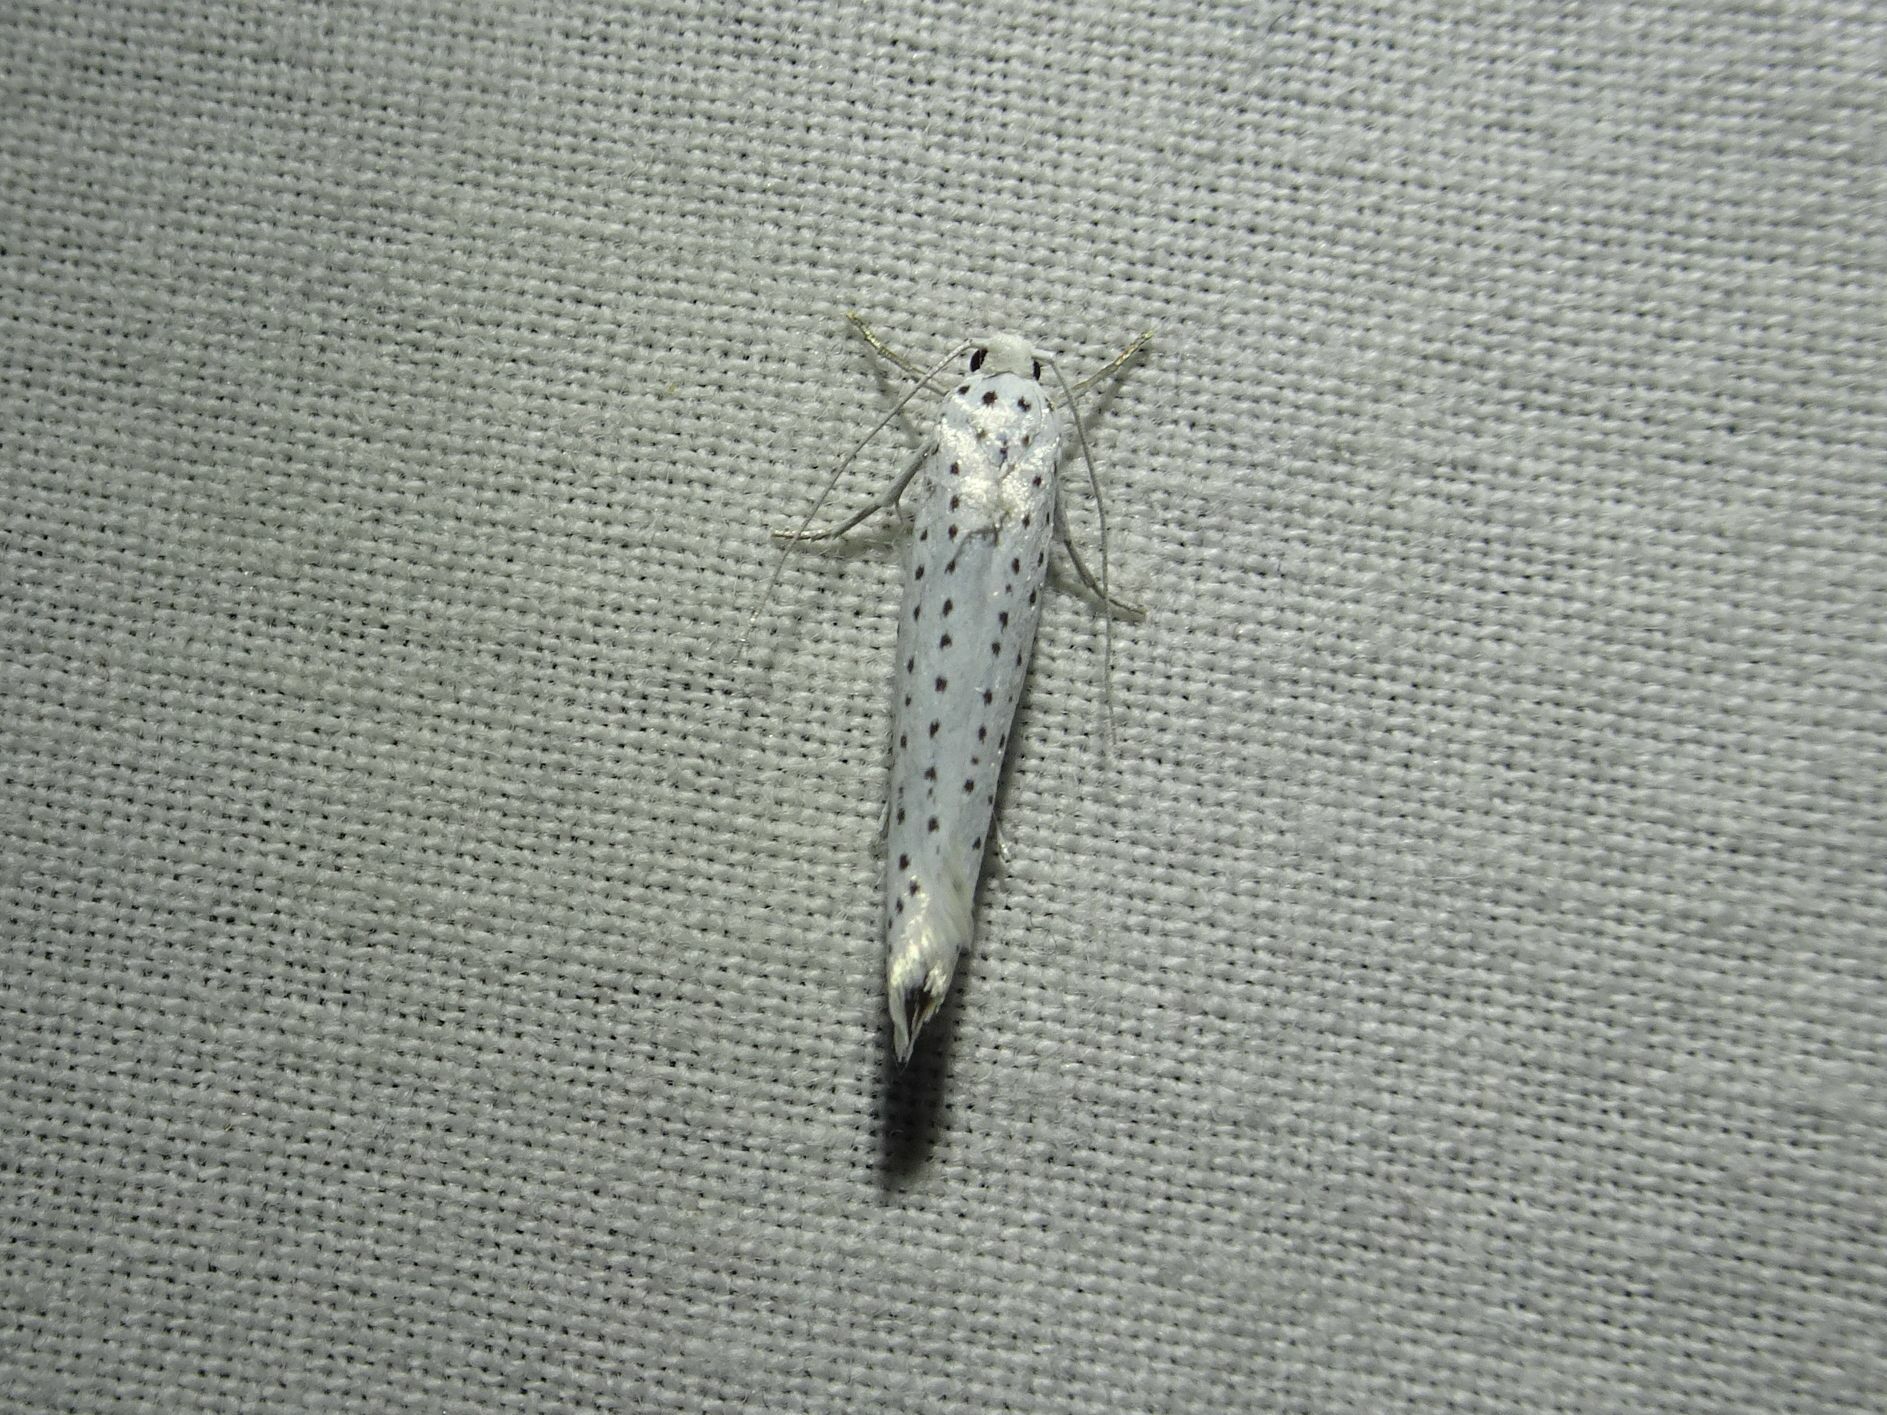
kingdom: Animalia
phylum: Arthropoda
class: Insecta
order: Lepidoptera
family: Yponomeutidae
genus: Yponomeuta
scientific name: Yponomeuta evonymella
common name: Bird-cherry ermine
